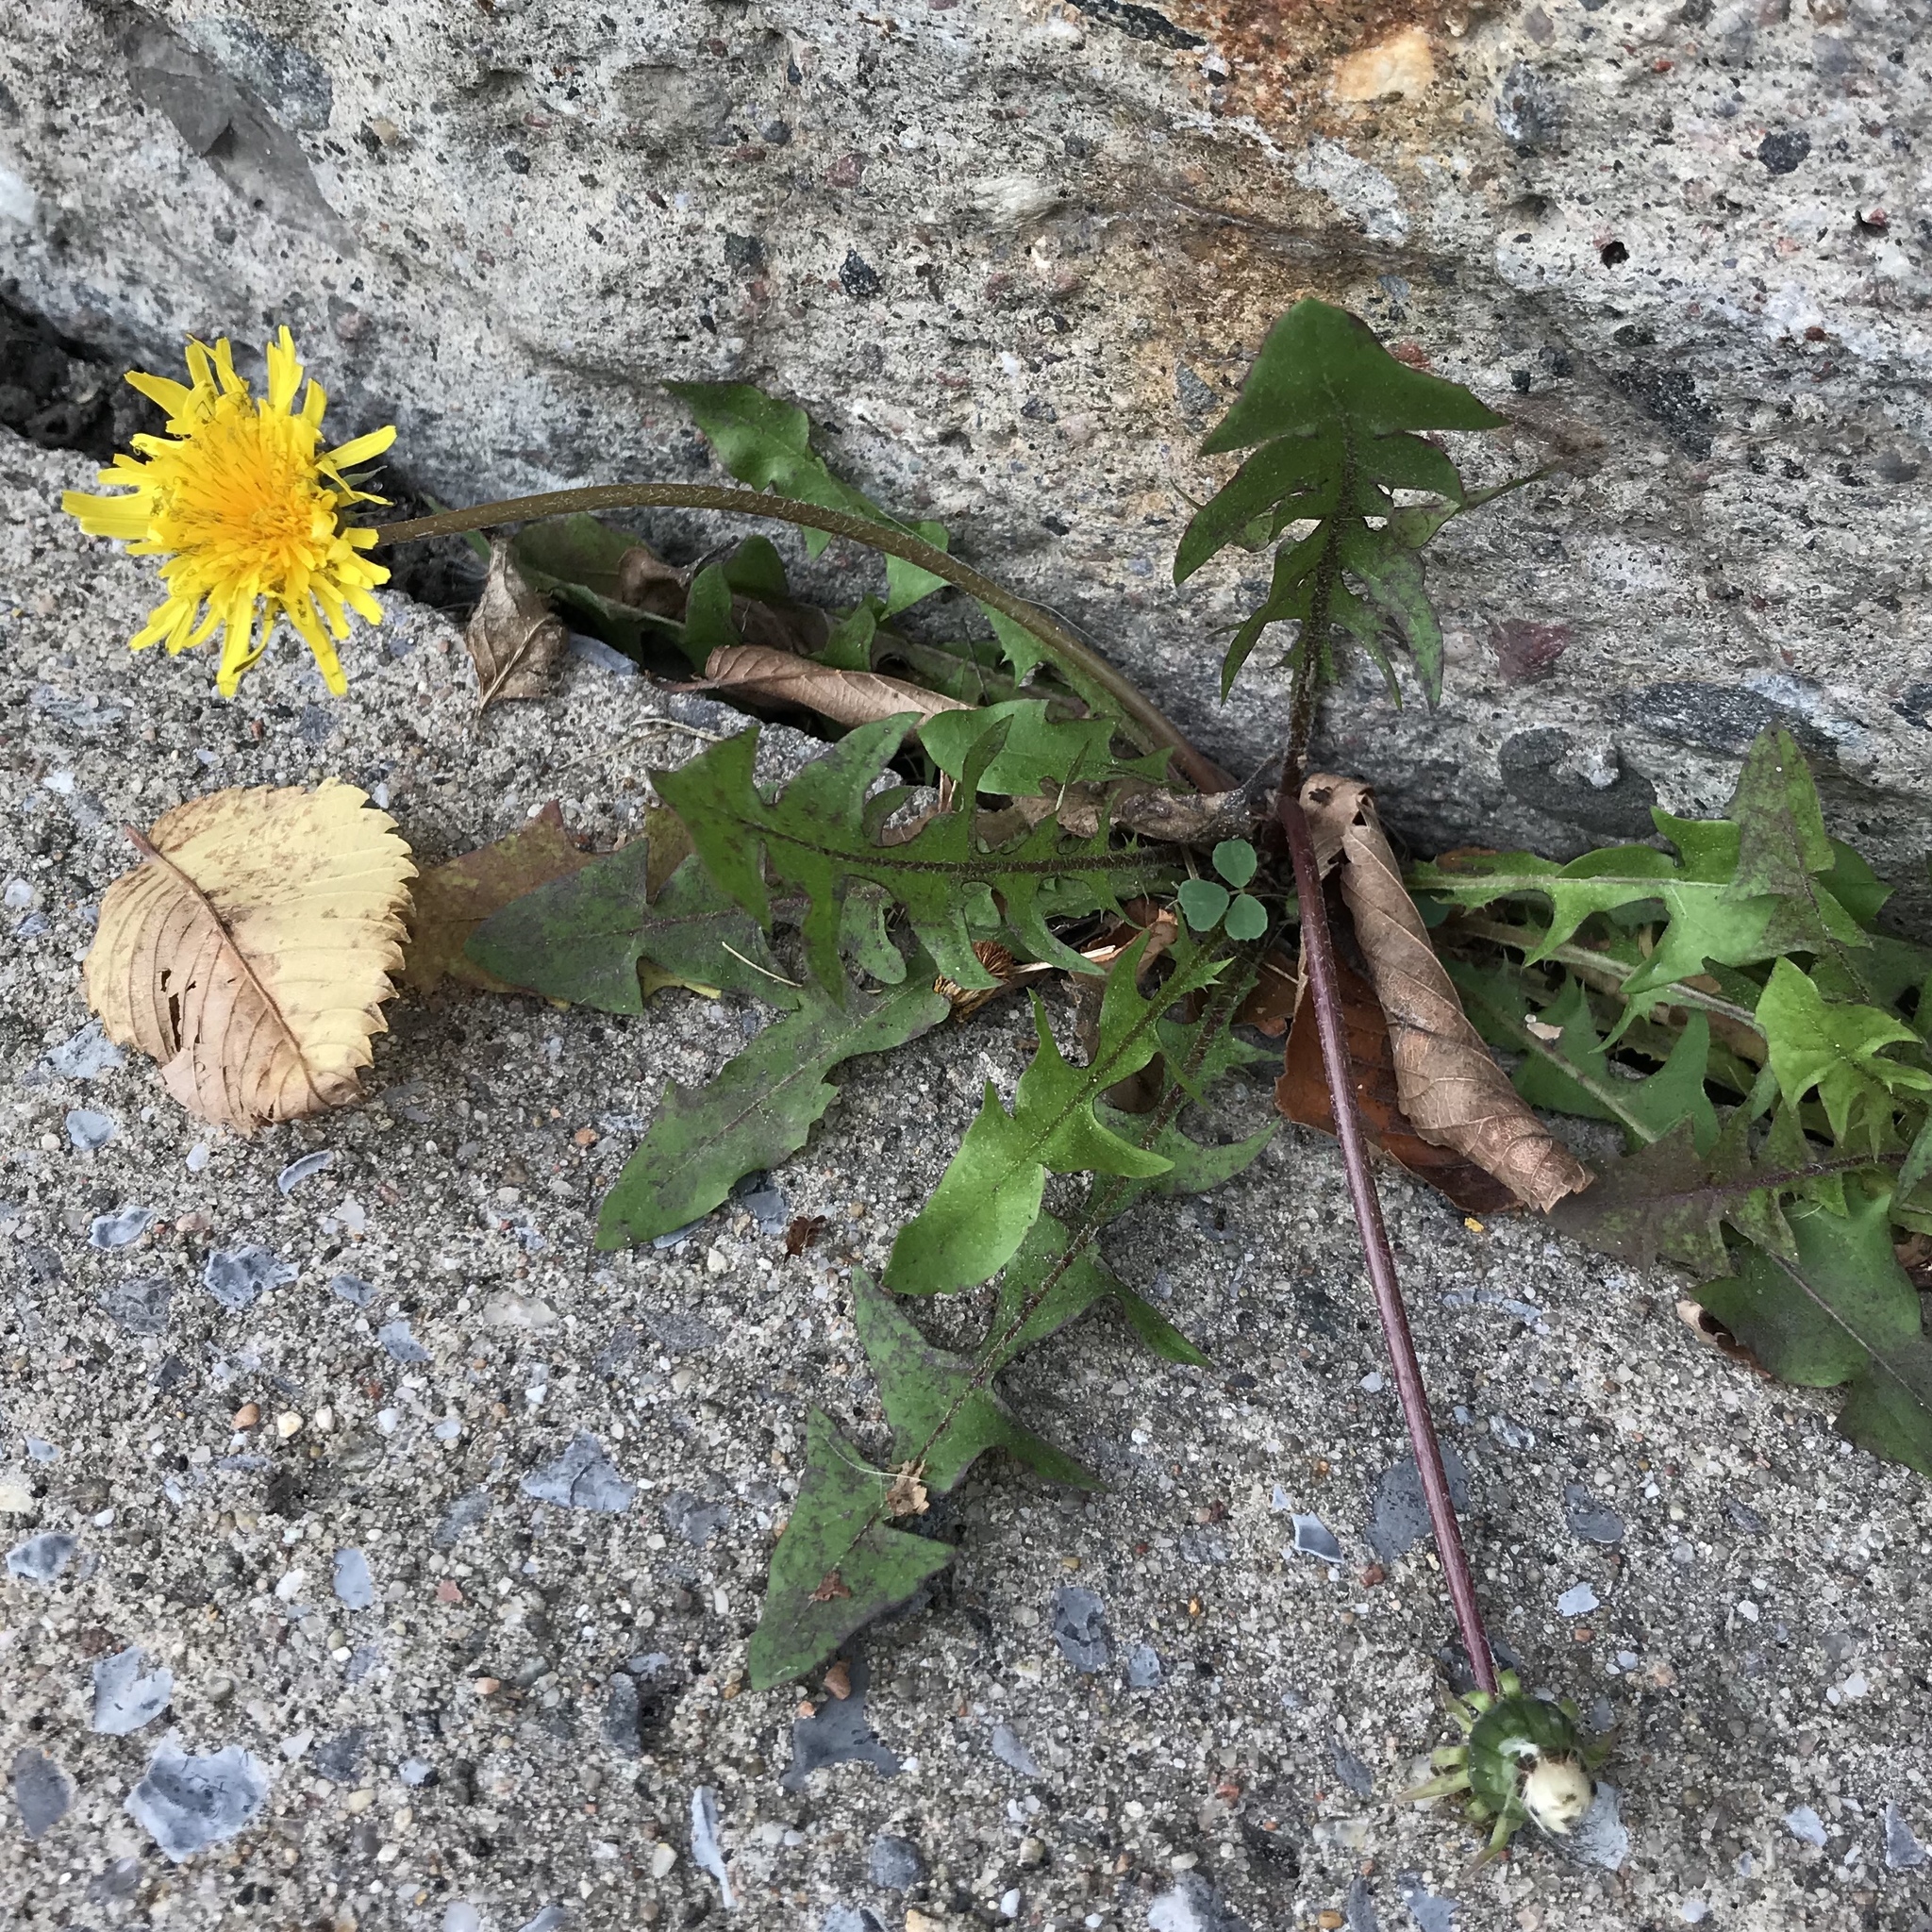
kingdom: Plantae
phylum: Tracheophyta
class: Magnoliopsida
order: Asterales
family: Asteraceae
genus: Taraxacum
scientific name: Taraxacum officinale
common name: Common dandelion
